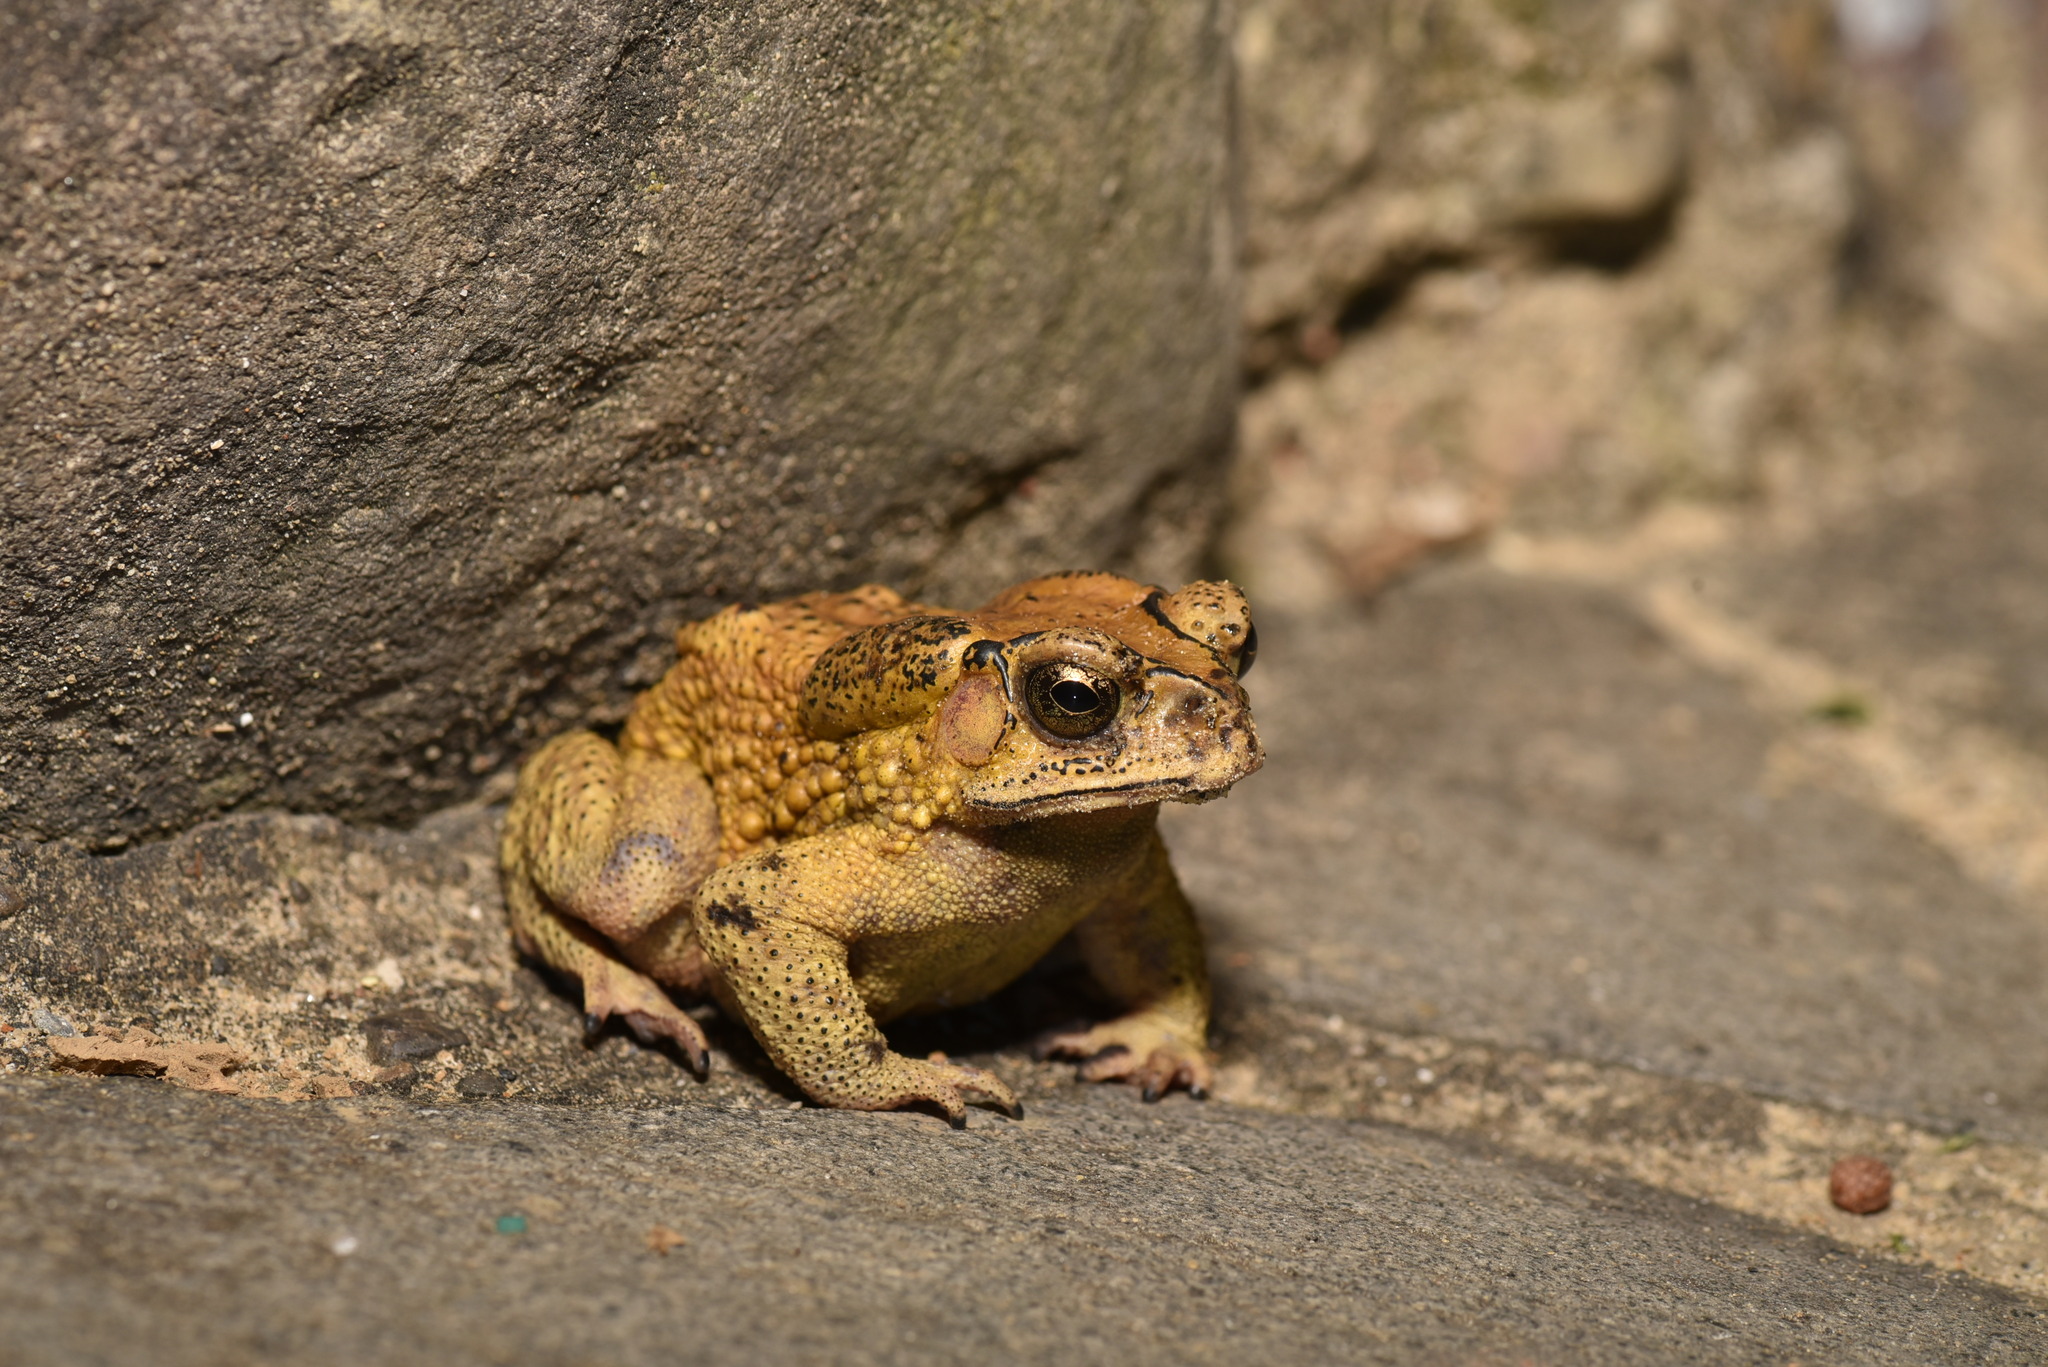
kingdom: Animalia
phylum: Chordata
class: Amphibia
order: Anura
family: Bufonidae
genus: Duttaphrynus
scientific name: Duttaphrynus melanostictus
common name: Common sunda toad
